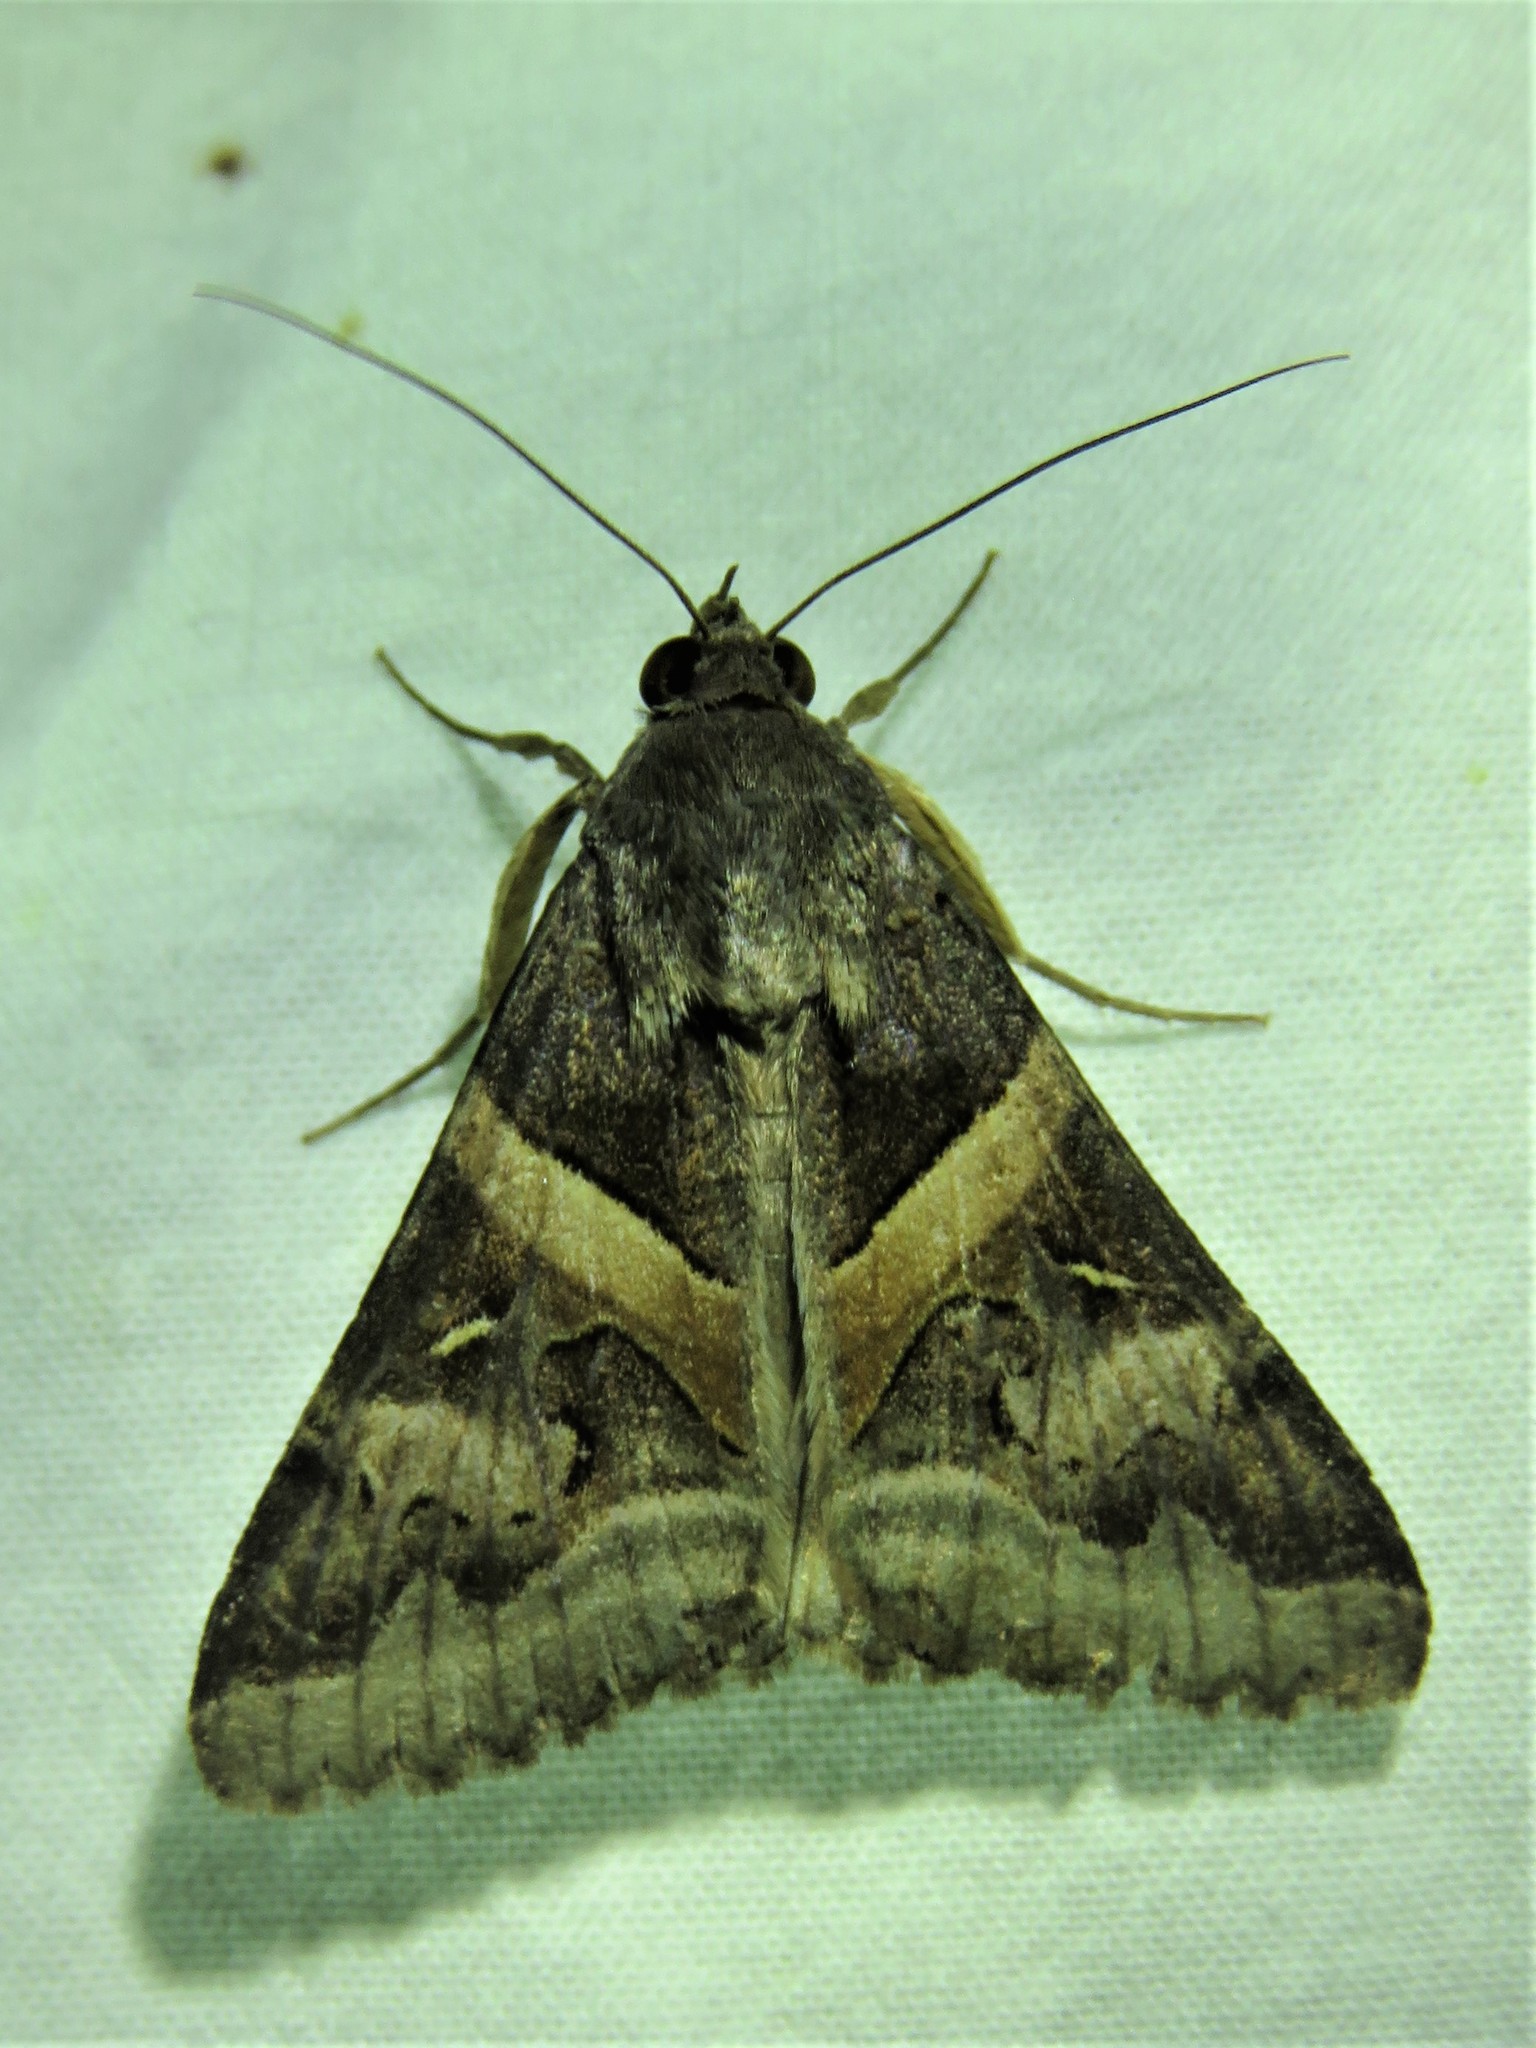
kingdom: Animalia
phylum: Arthropoda
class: Insecta
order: Lepidoptera
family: Erebidae
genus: Melipotis
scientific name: Melipotis indomita
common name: Moth
